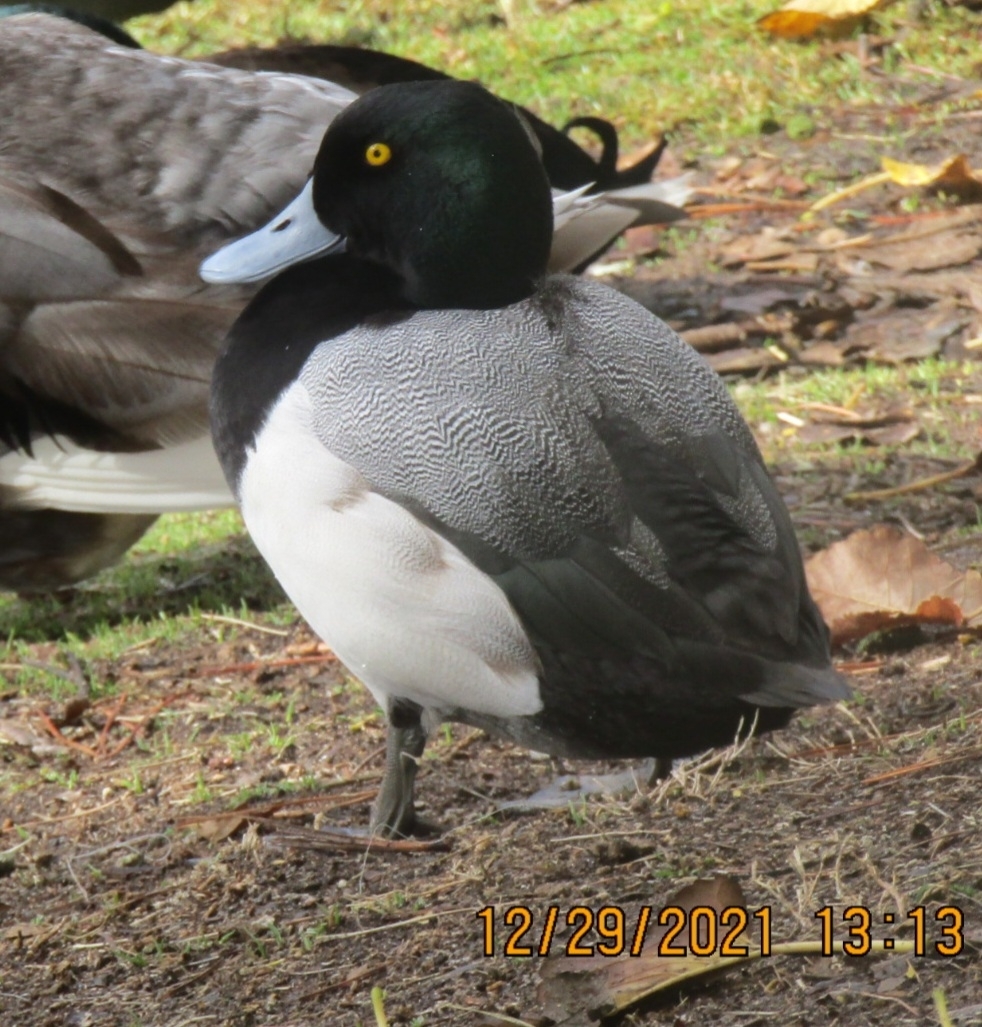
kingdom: Animalia
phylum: Chordata
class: Aves
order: Anseriformes
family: Anatidae
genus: Aythya
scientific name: Aythya marila
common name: Greater scaup
